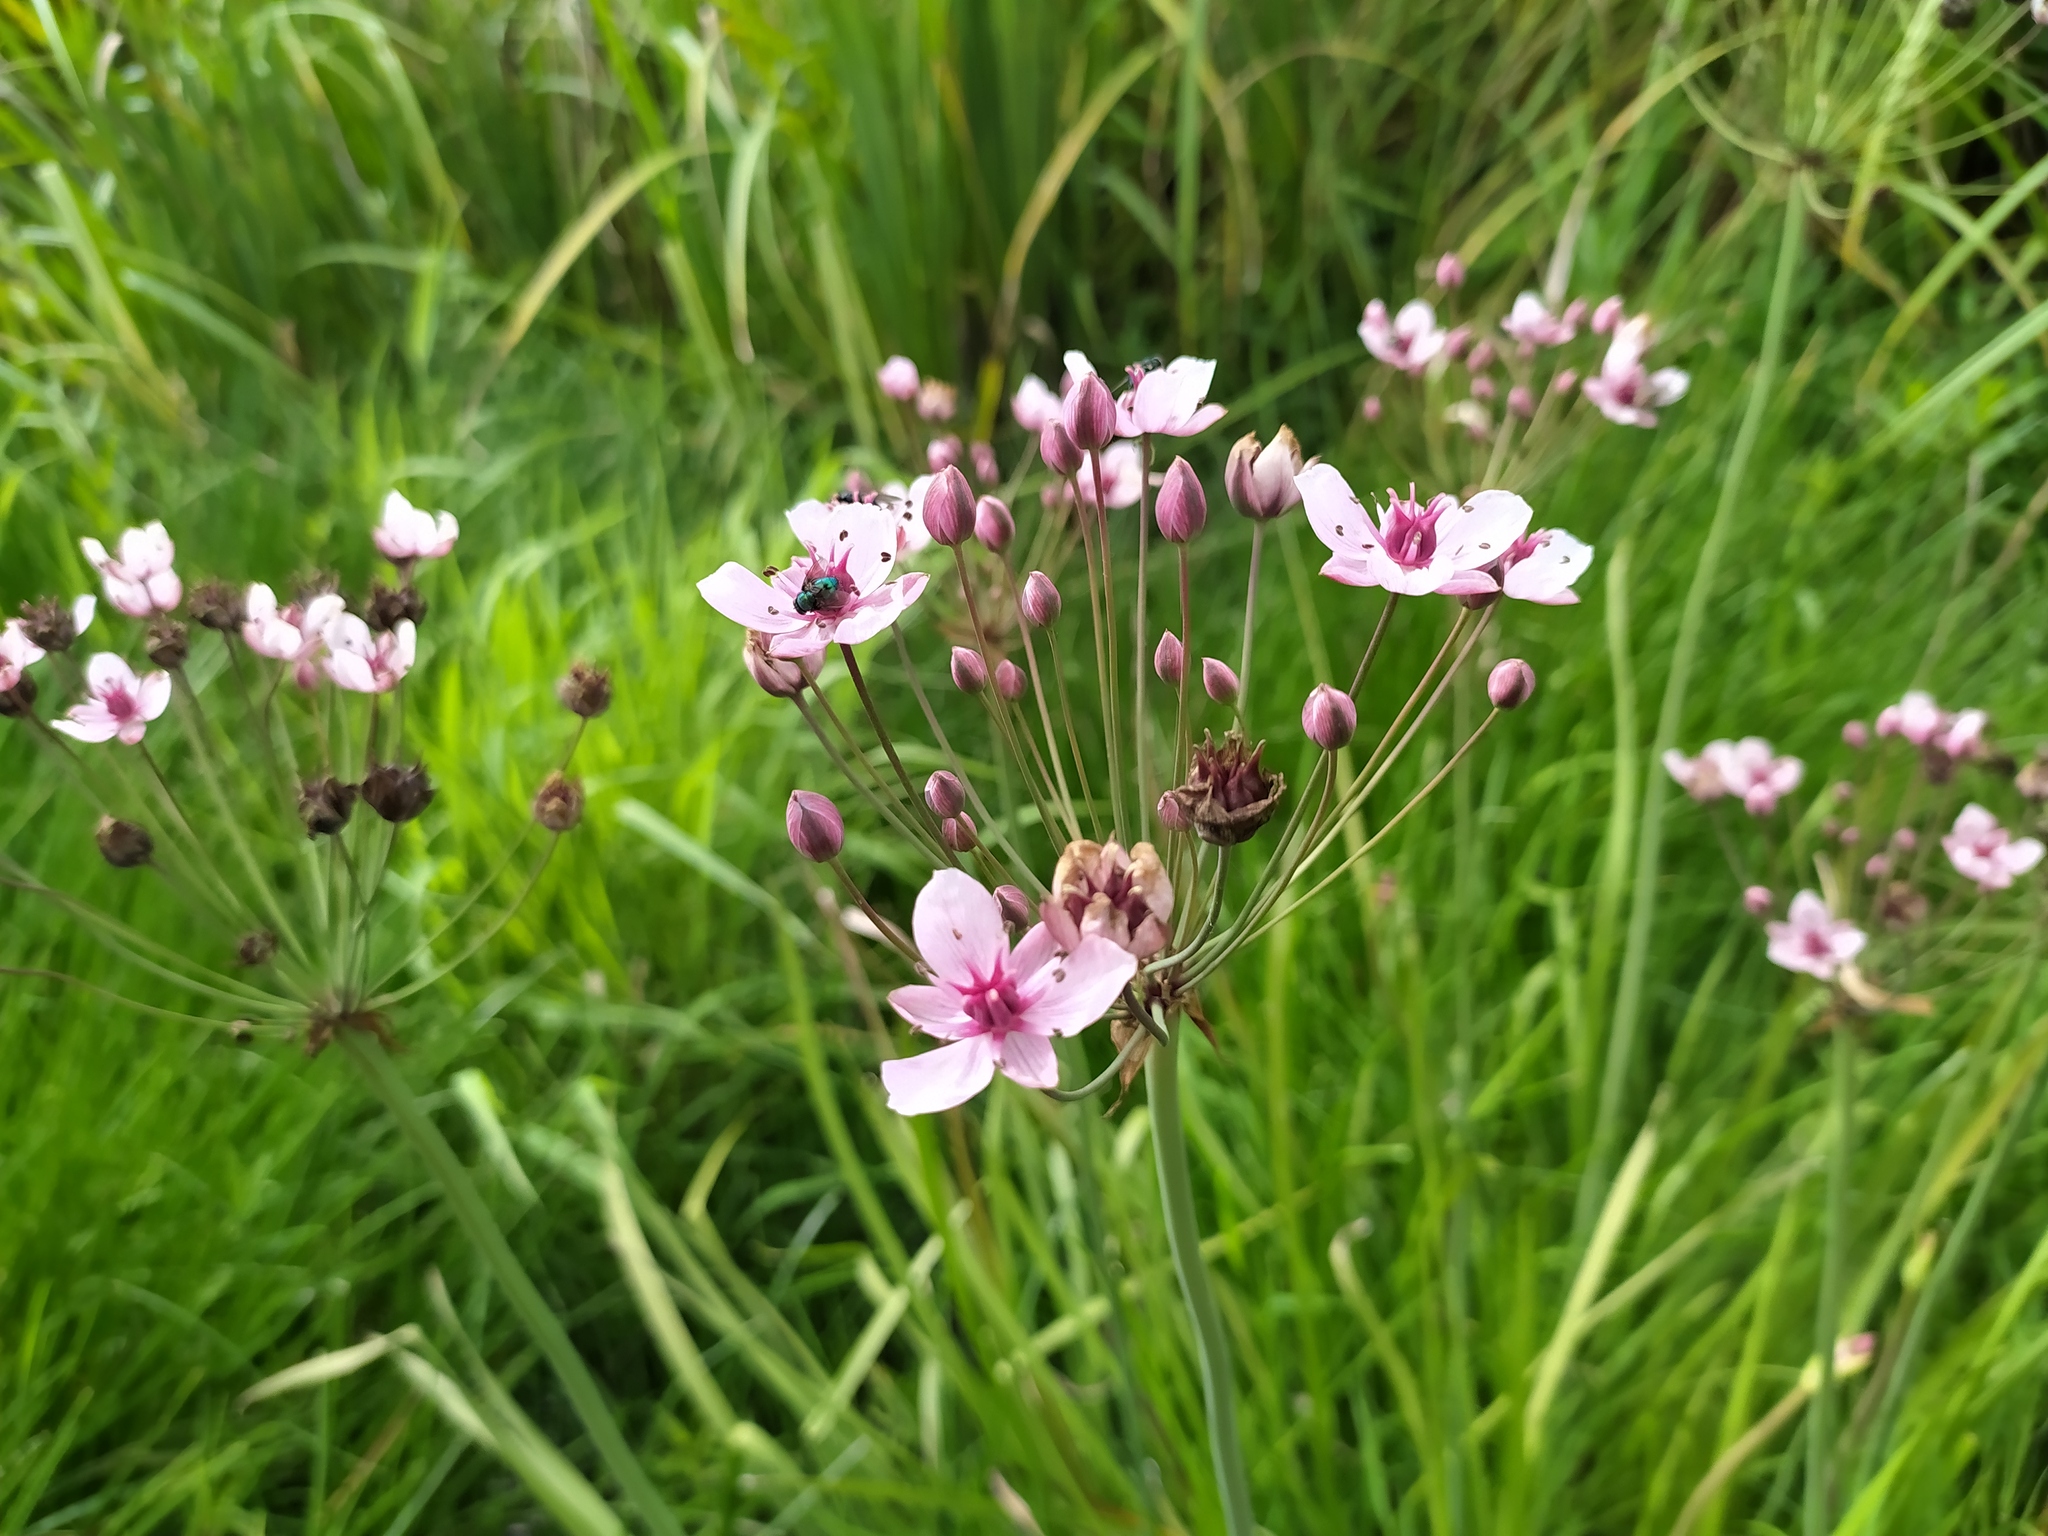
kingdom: Plantae
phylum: Tracheophyta
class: Liliopsida
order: Alismatales
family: Butomaceae
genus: Butomus
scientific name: Butomus umbellatus
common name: Flowering-rush
